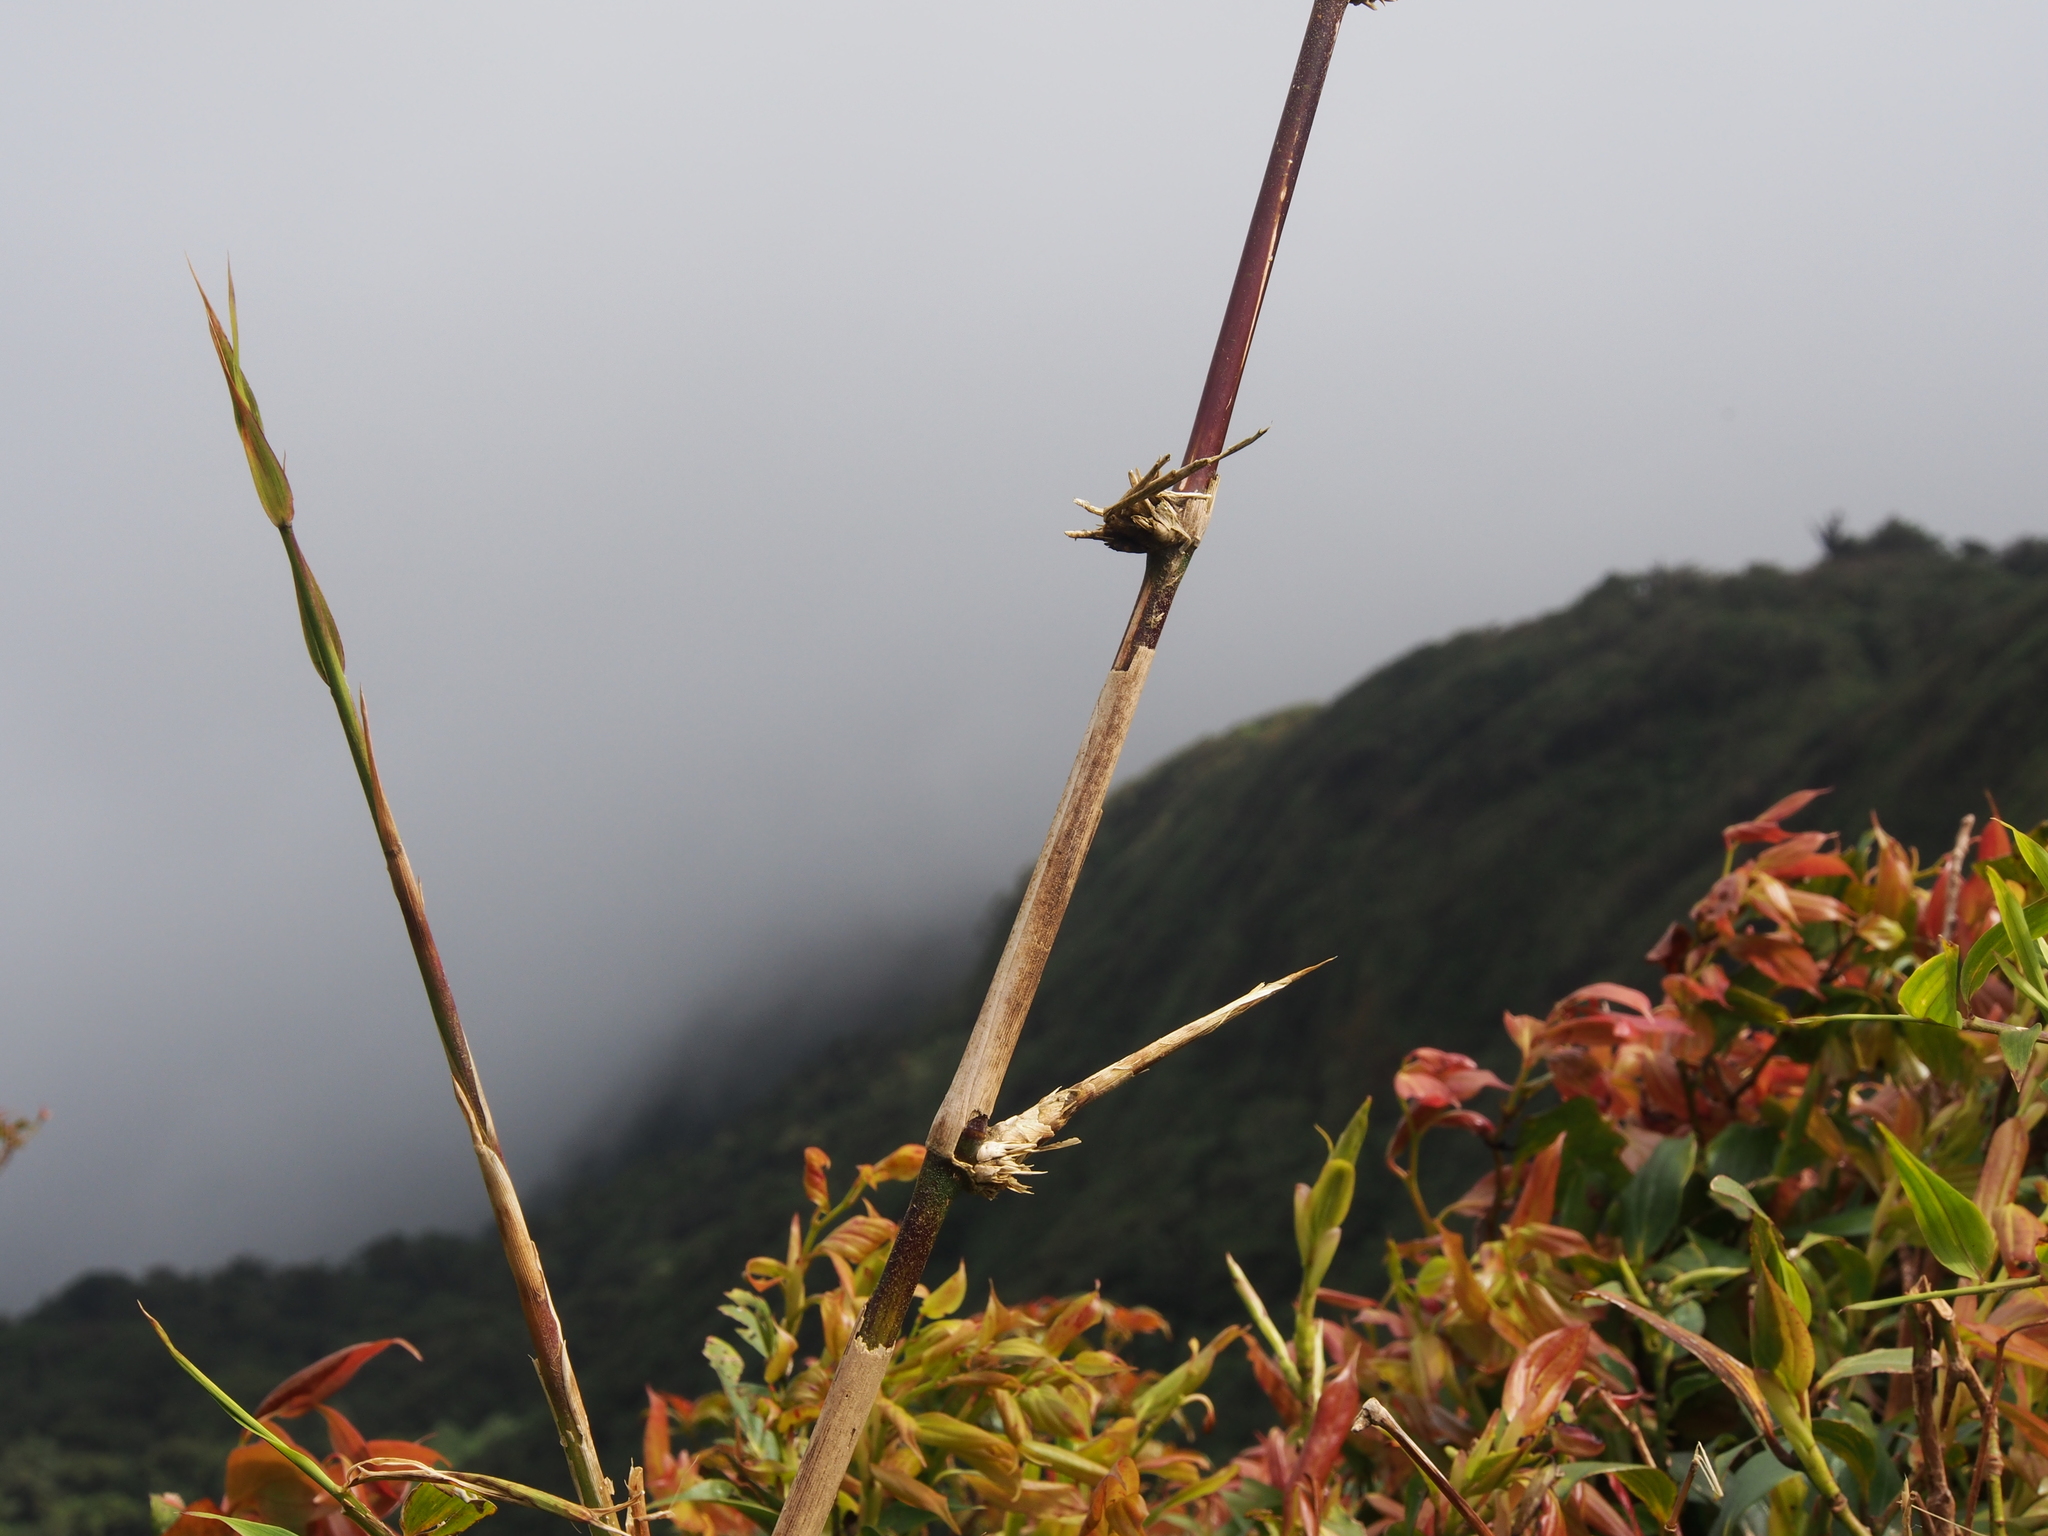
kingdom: Plantae
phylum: Tracheophyta
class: Liliopsida
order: Poales
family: Poaceae
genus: Chusquea
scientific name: Chusquea subtessellata
